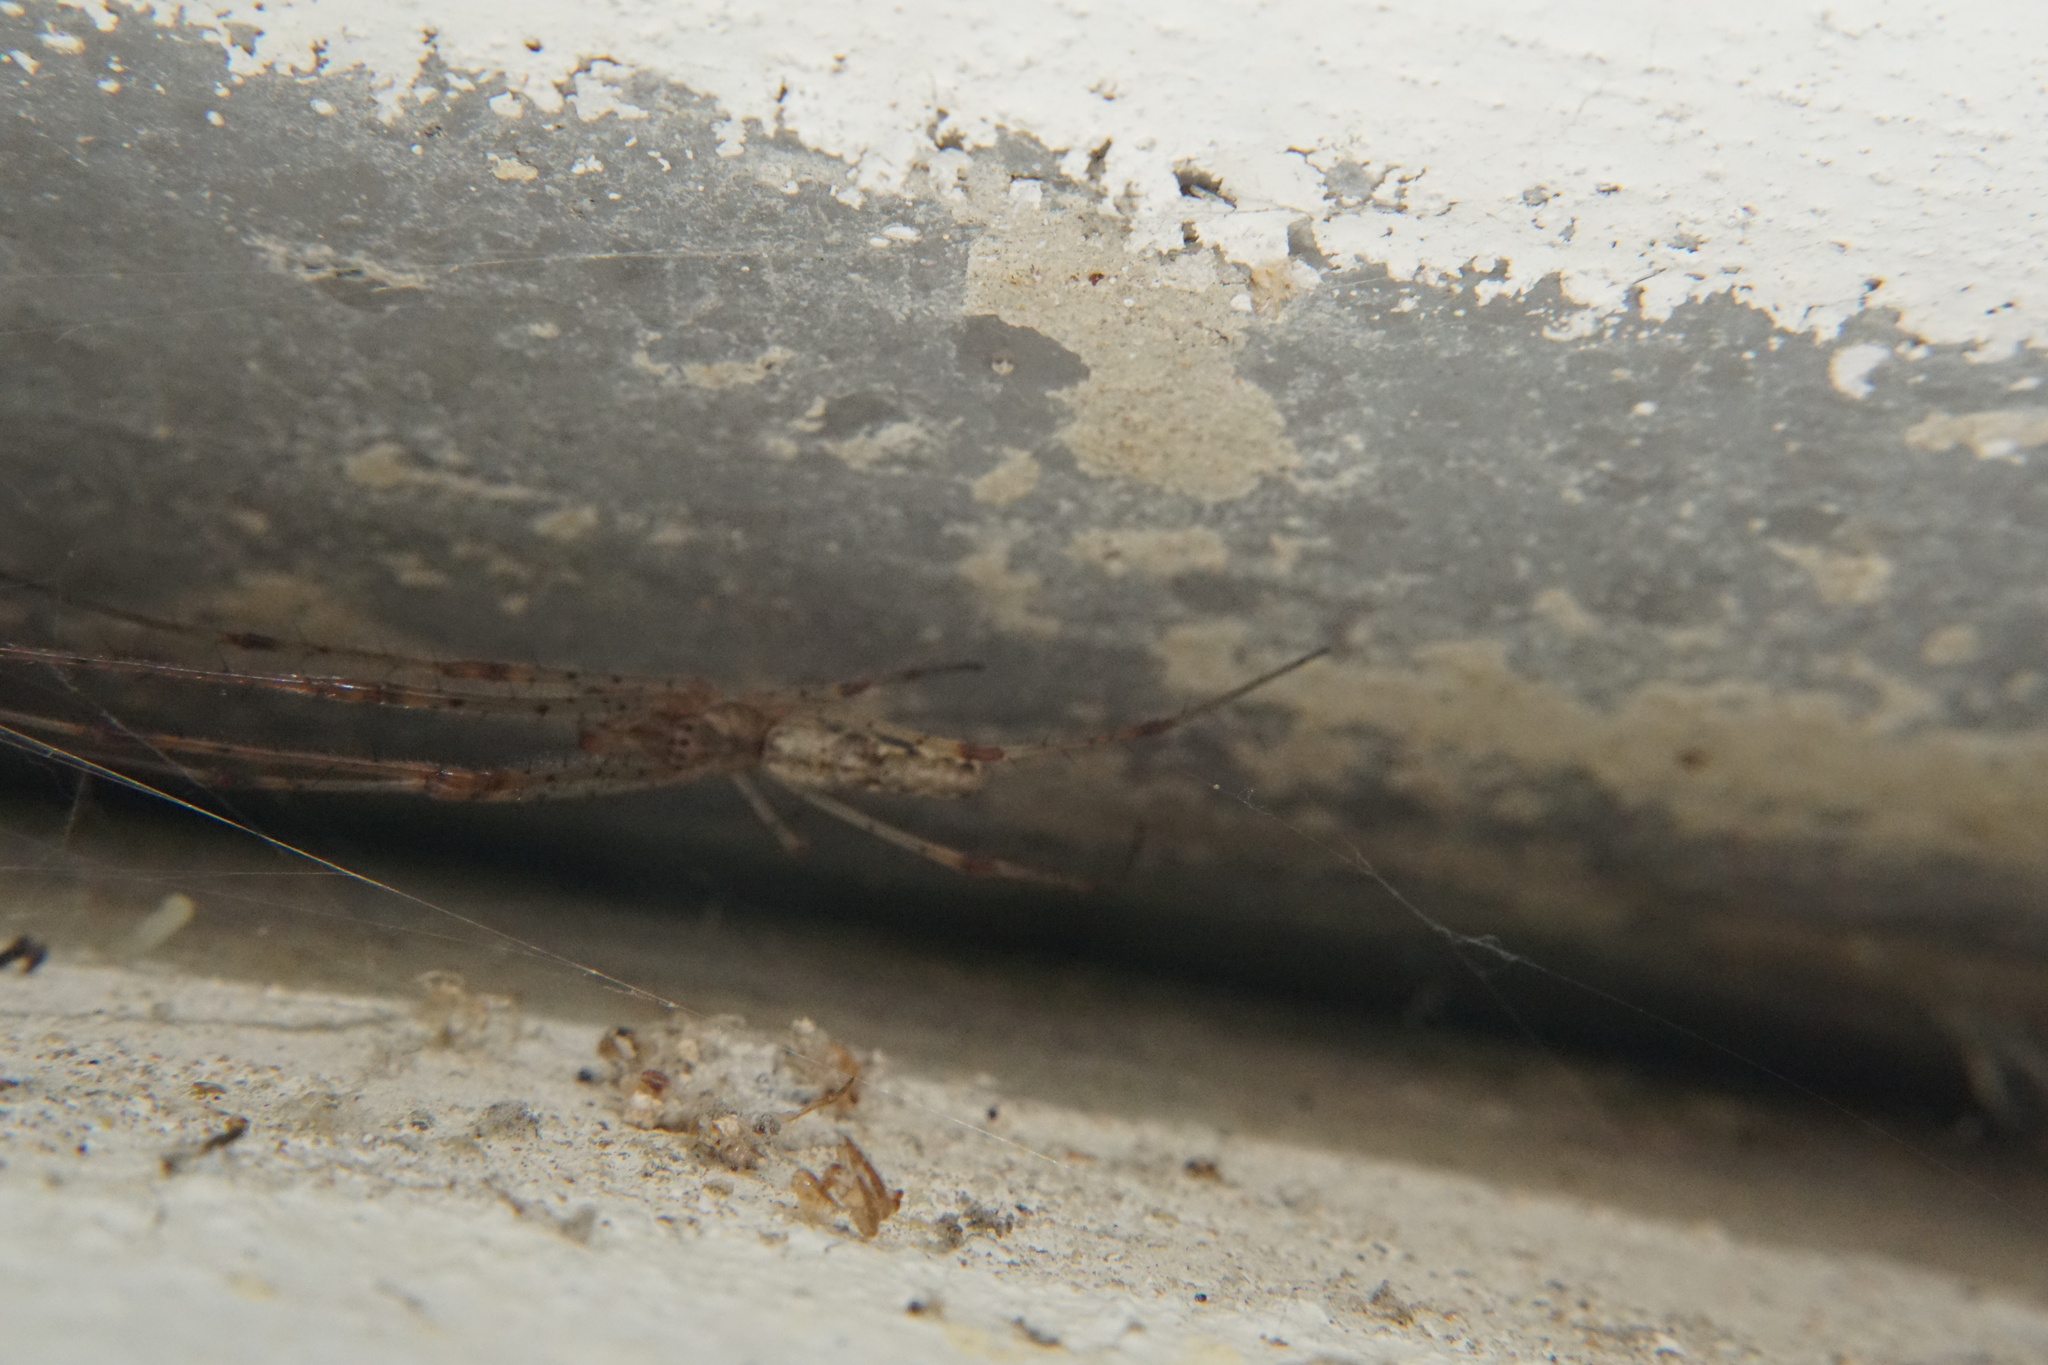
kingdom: Animalia
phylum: Arthropoda
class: Arachnida
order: Araneae
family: Tetragnathidae
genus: Tetragnatha
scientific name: Tetragnatha
